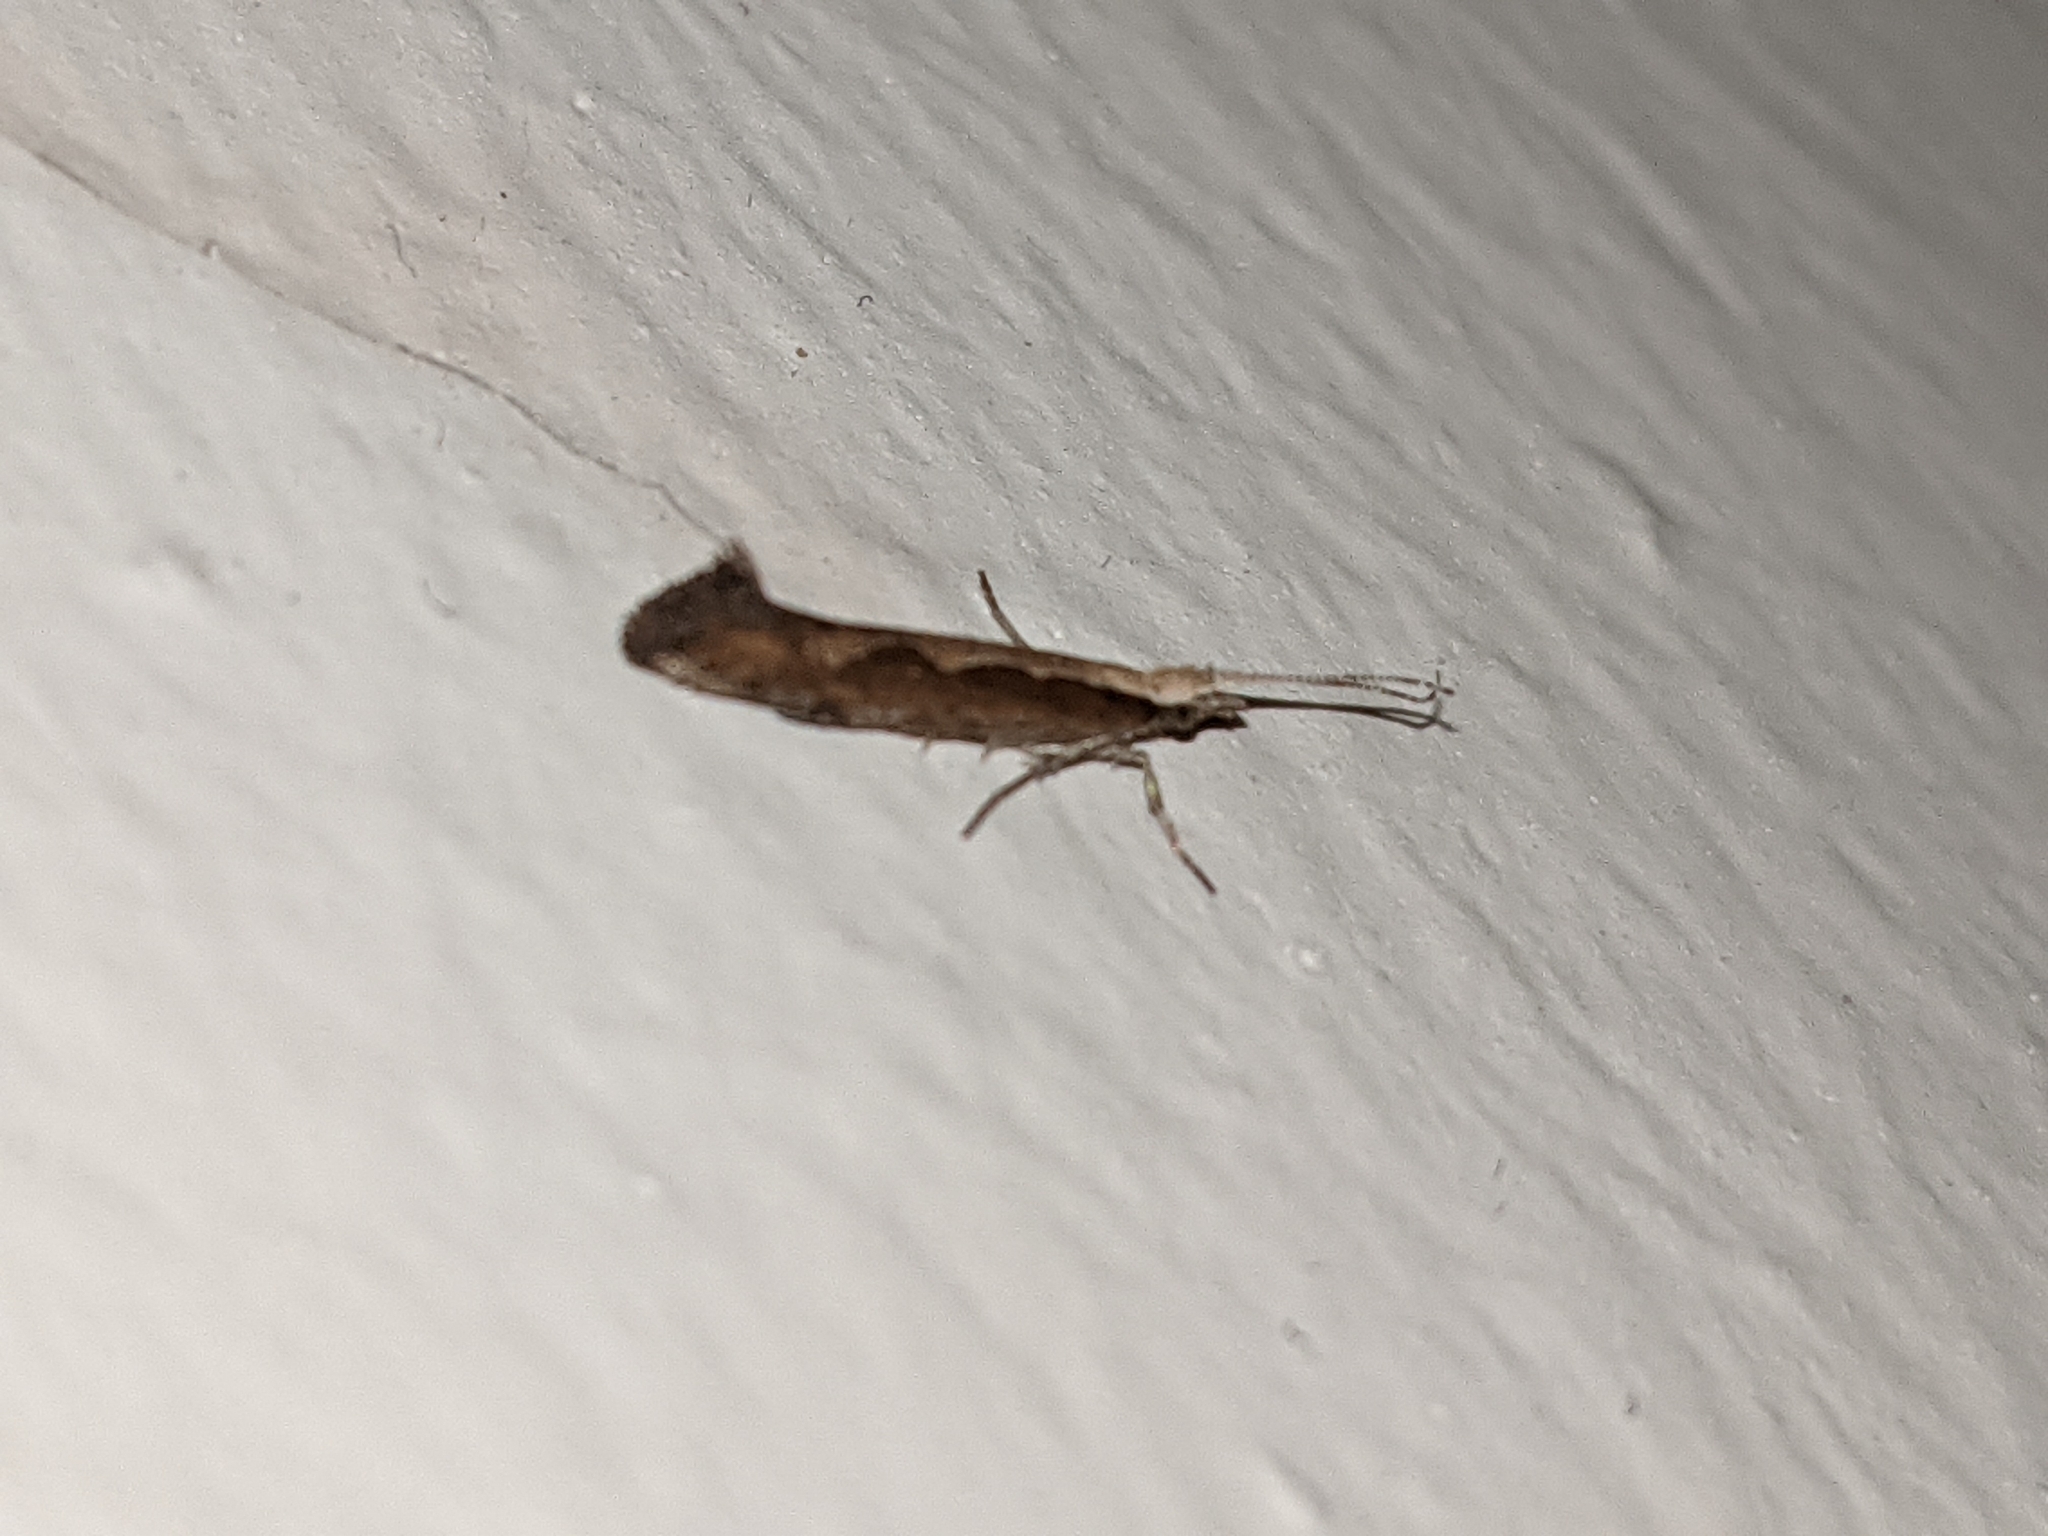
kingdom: Animalia
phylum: Arthropoda
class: Insecta
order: Lepidoptera
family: Plutellidae
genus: Plutella
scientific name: Plutella xylostella
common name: Diamond-back moth
